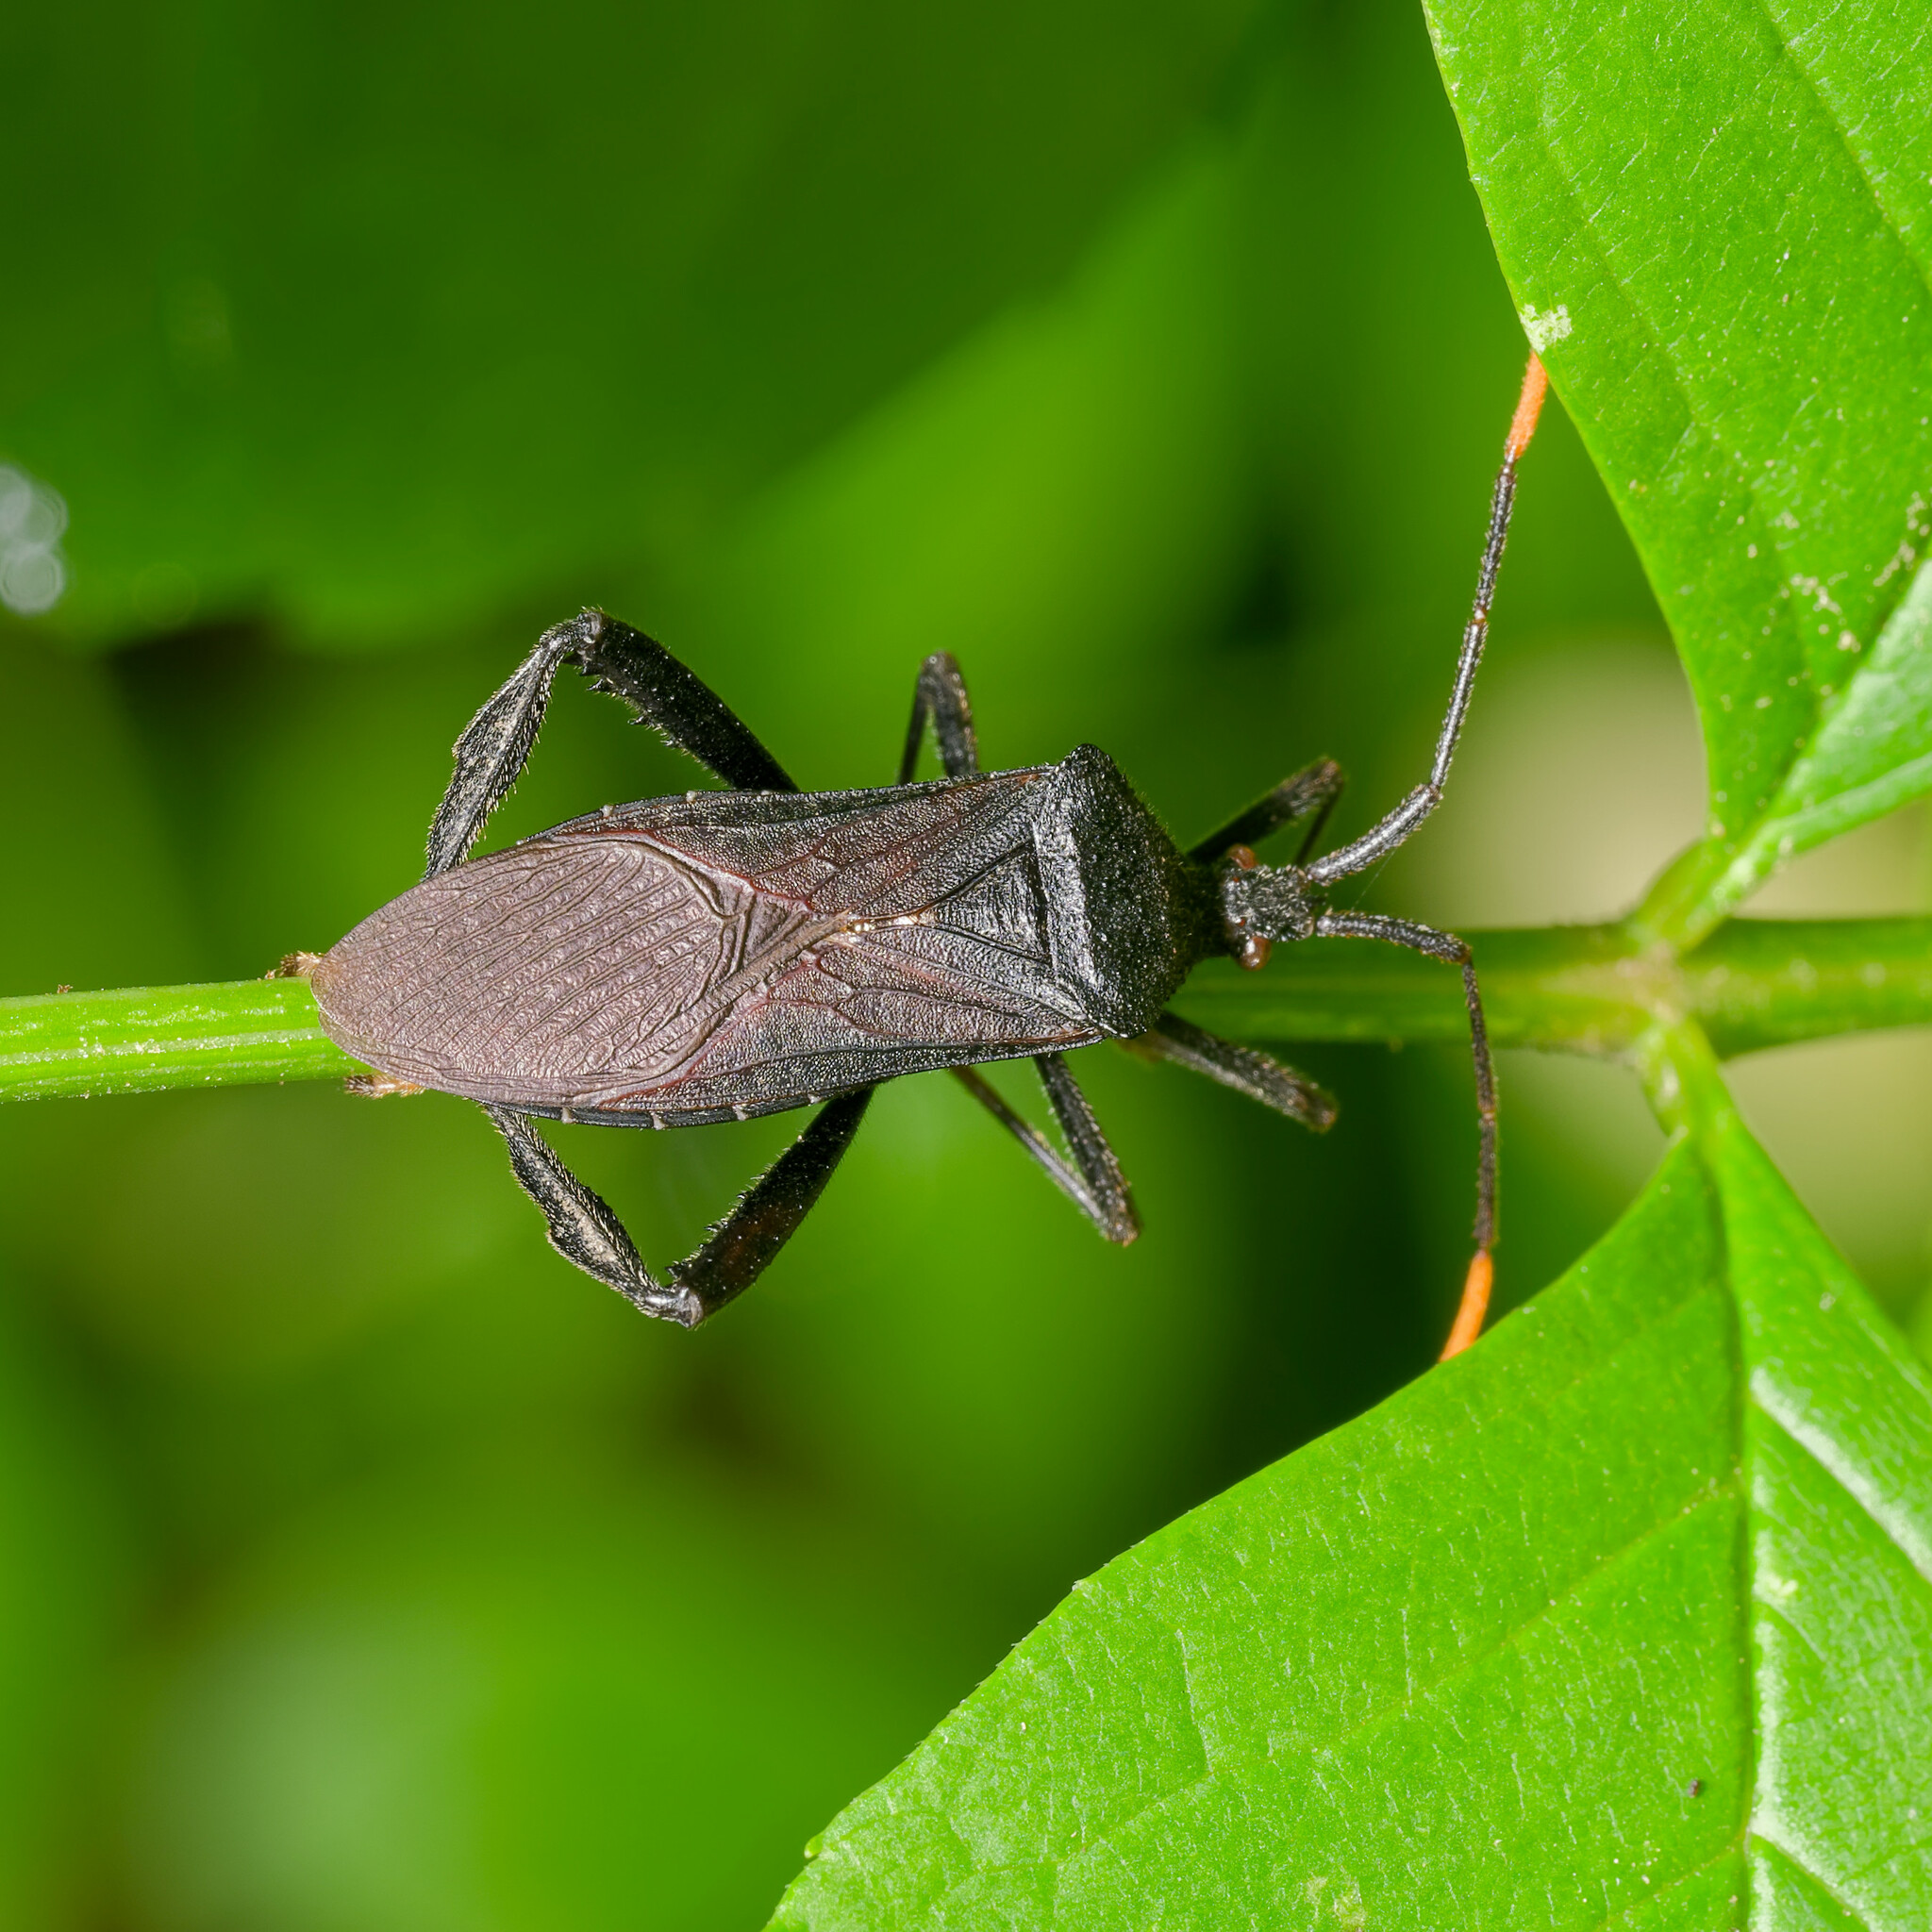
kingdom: Animalia
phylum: Arthropoda
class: Insecta
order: Hemiptera
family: Coreidae
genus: Acanthocephala
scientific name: Acanthocephala terminalis
